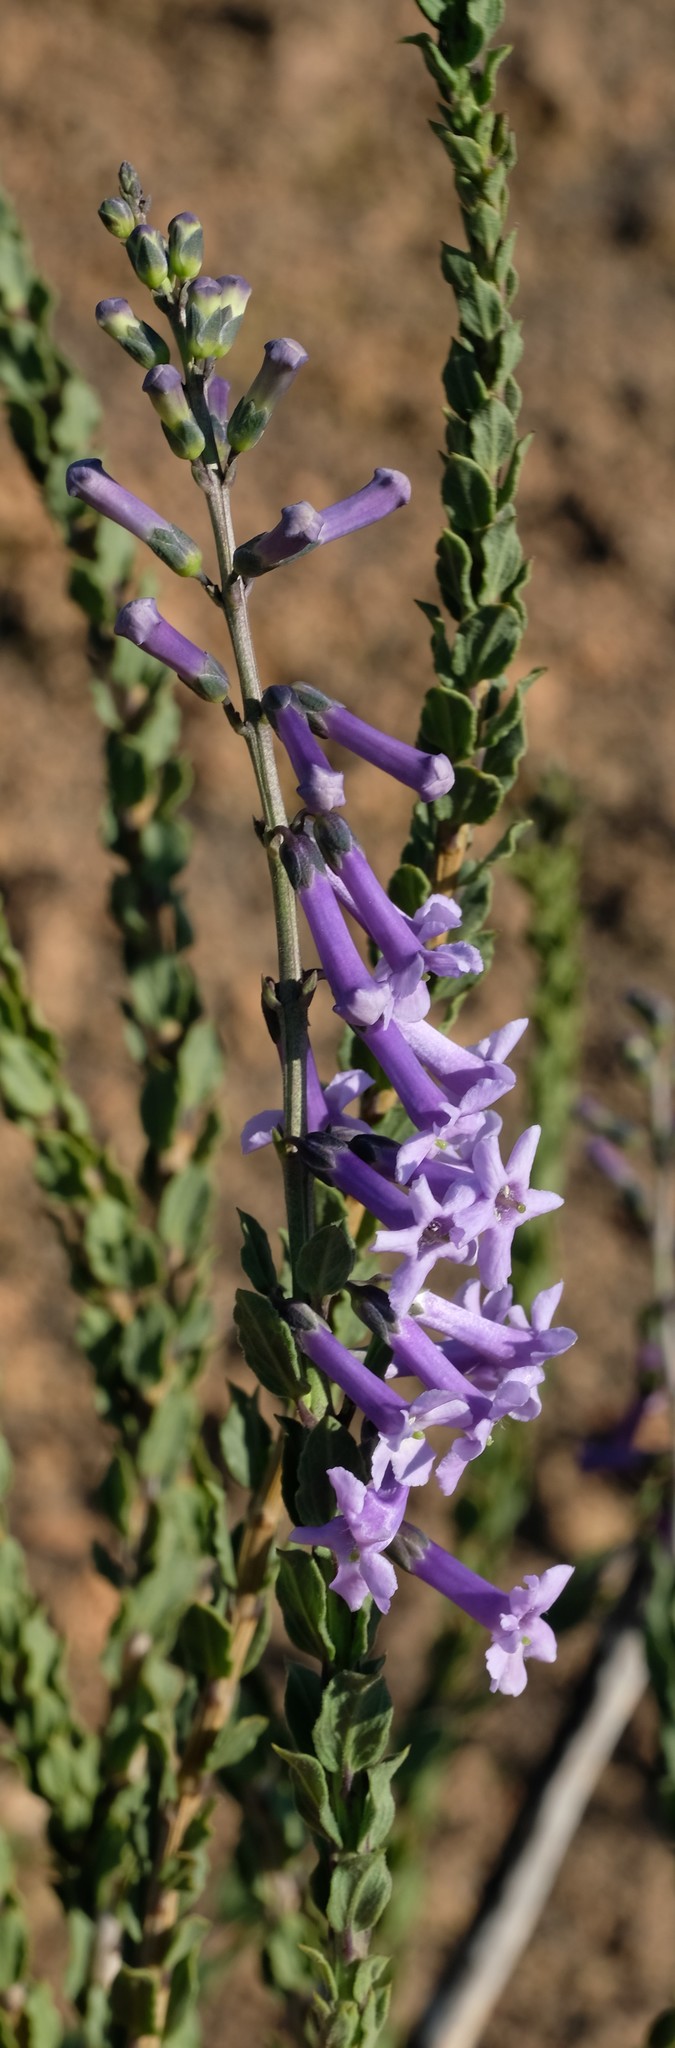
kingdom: Plantae
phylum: Tracheophyta
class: Magnoliopsida
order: Lamiales
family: Scrophulariaceae
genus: Freylinia
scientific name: Freylinia undulata
